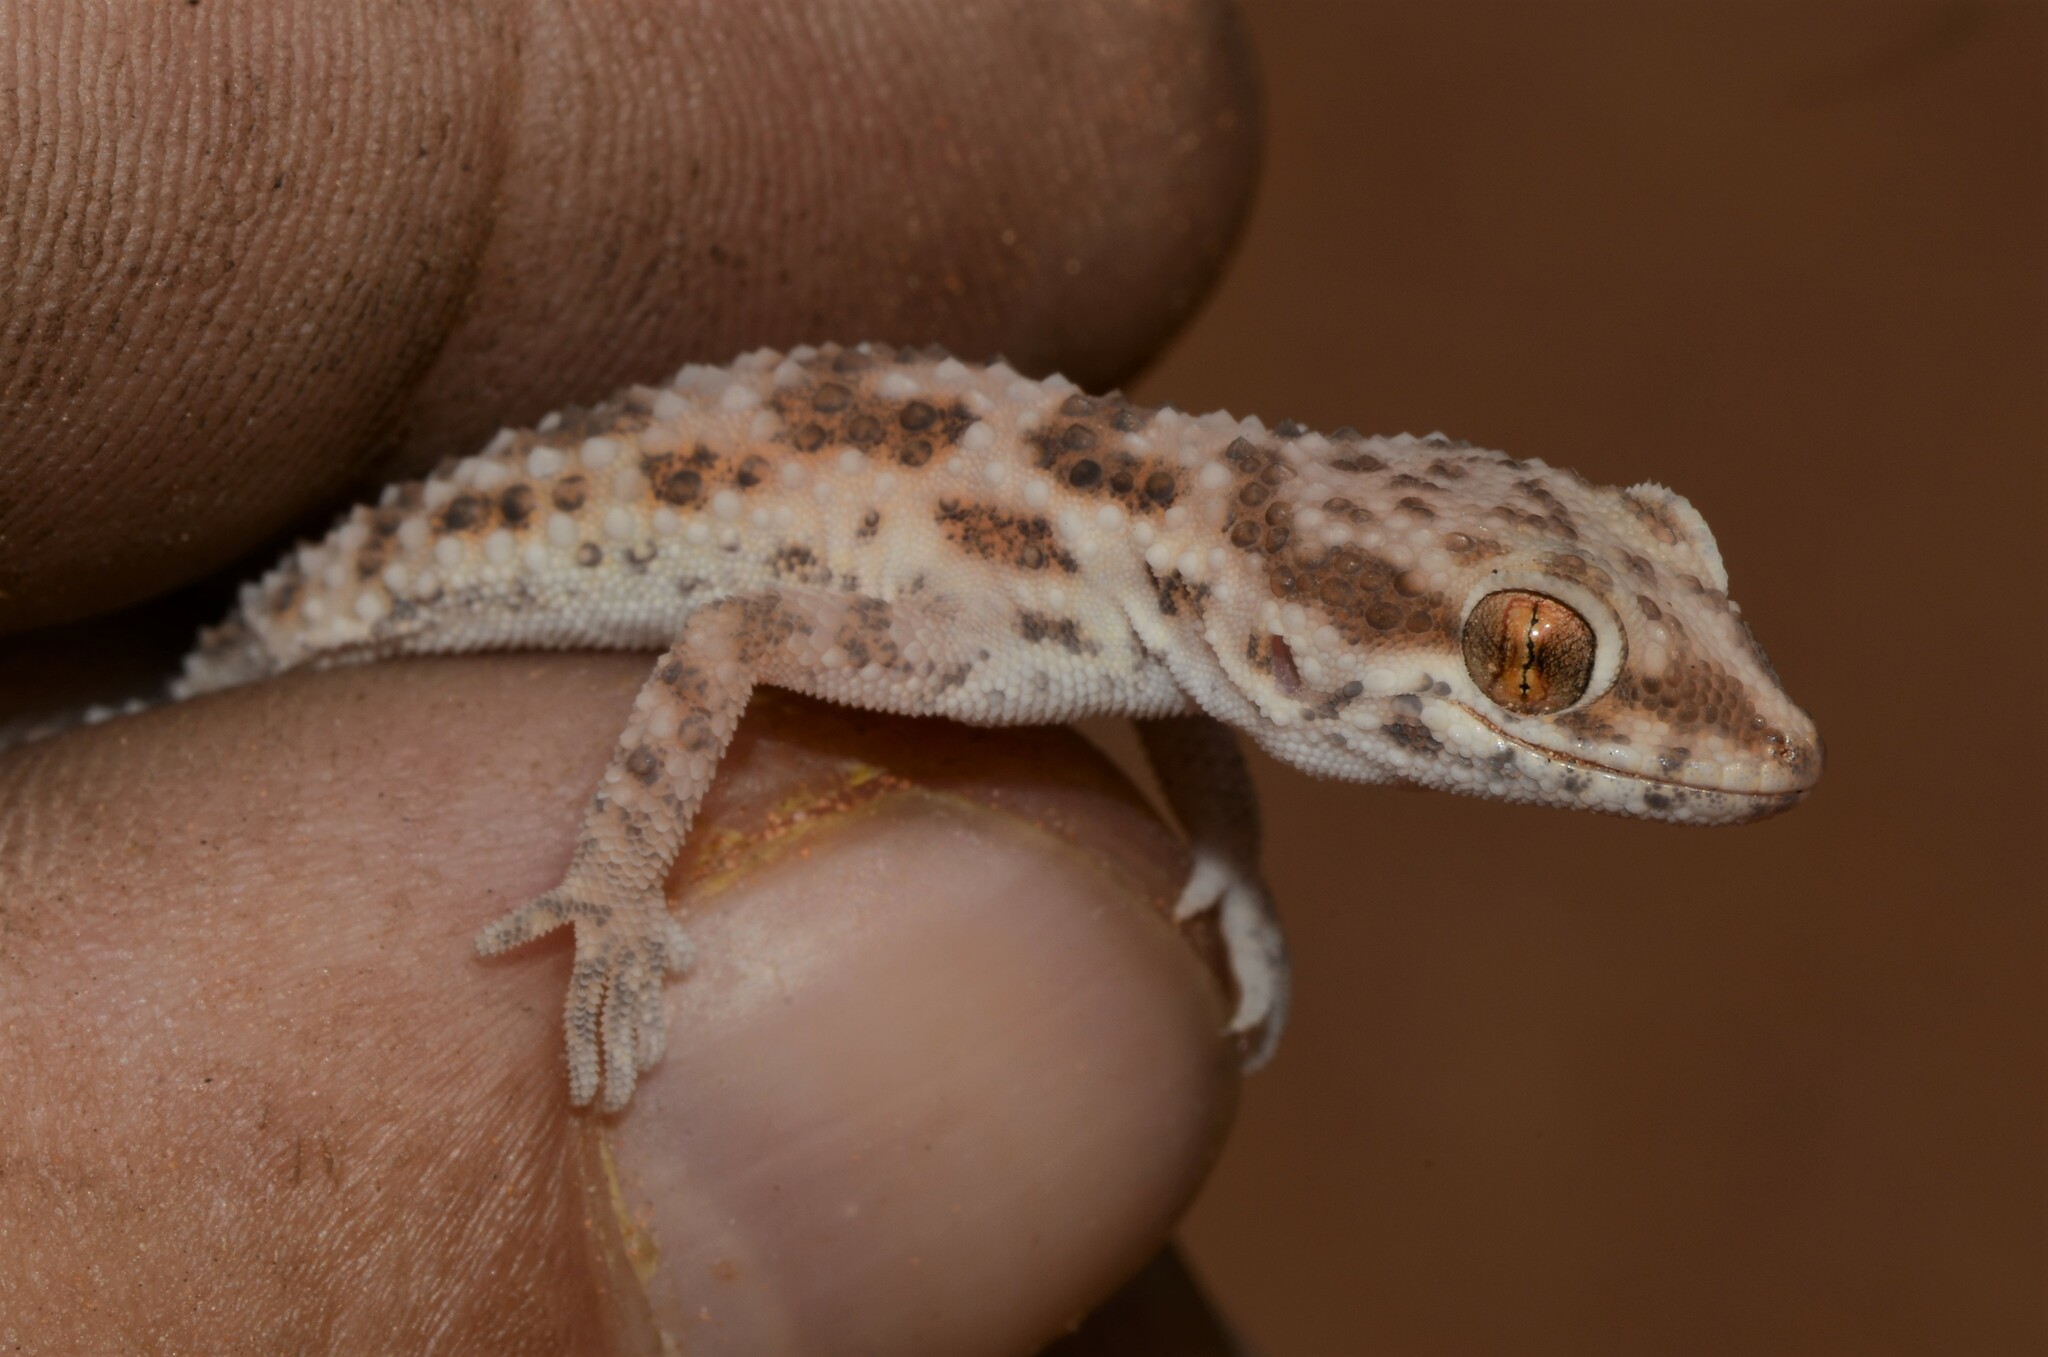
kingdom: Animalia
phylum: Chordata
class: Squamata
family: Gekkonidae
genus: Bunopus
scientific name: Bunopus tuberculatus
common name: Southern tuberculated gecko
